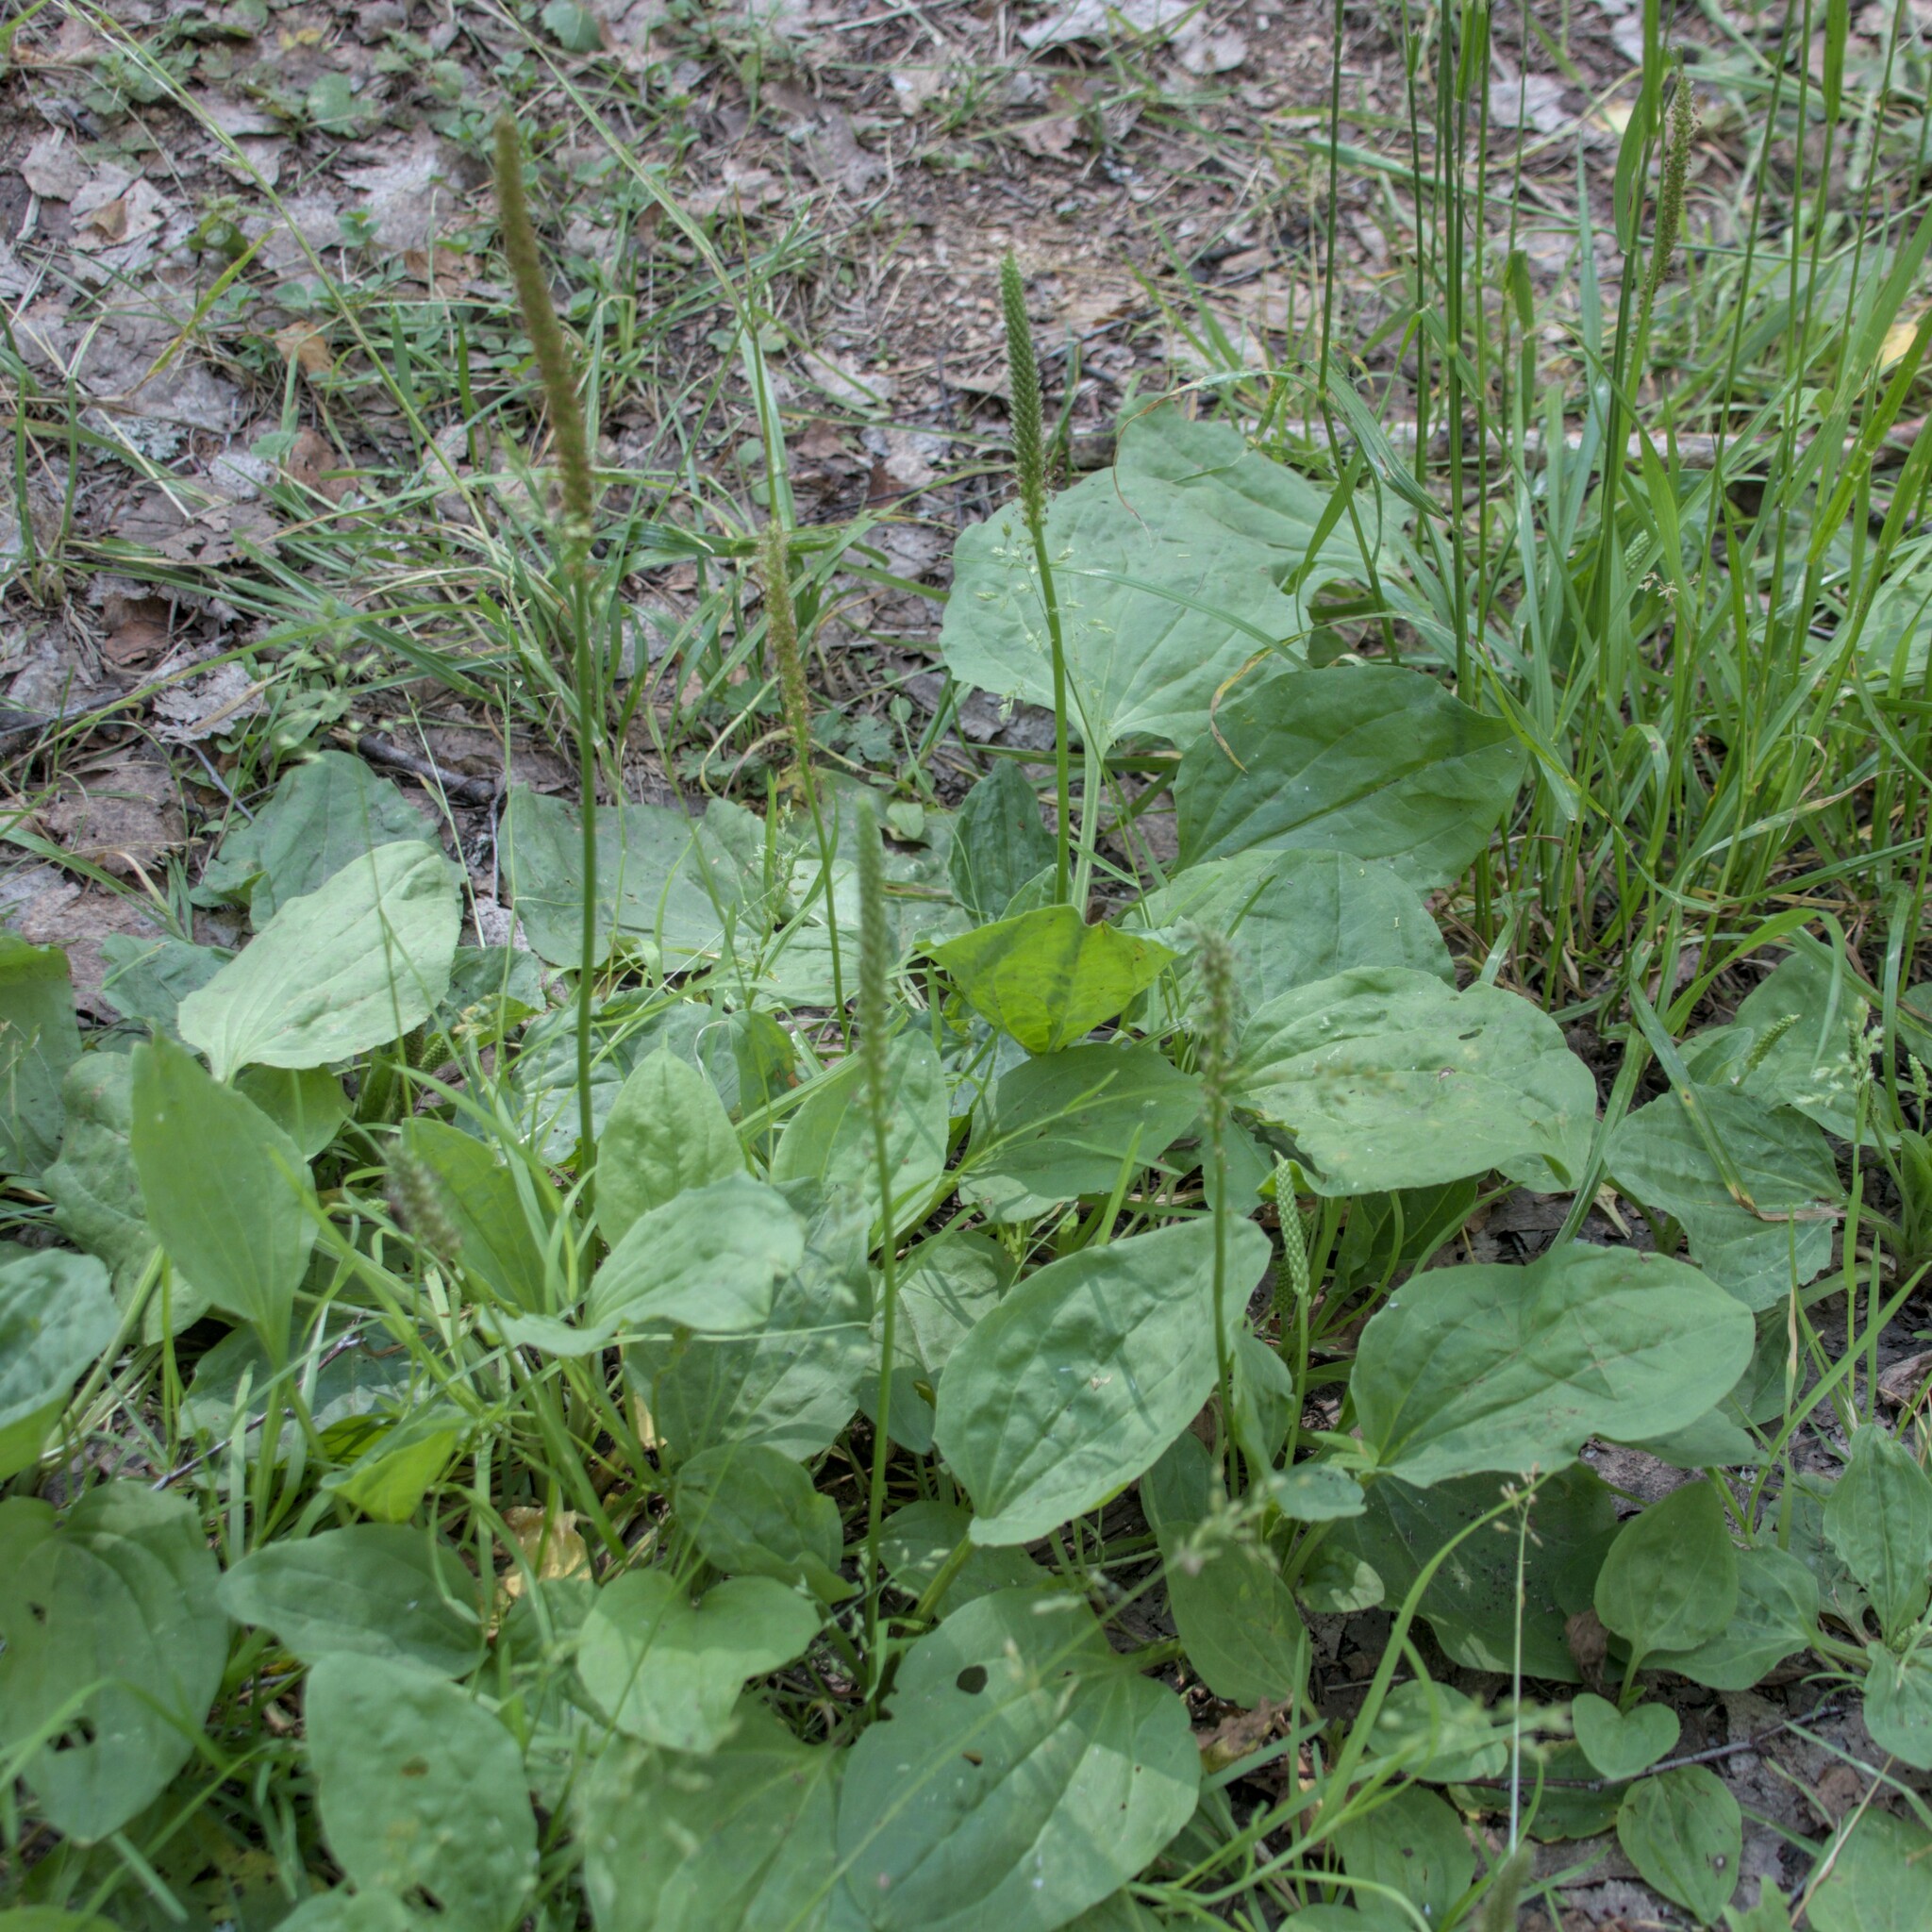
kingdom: Plantae
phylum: Tracheophyta
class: Magnoliopsida
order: Lamiales
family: Plantaginaceae
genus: Plantago
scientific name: Plantago major
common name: Common plantain
